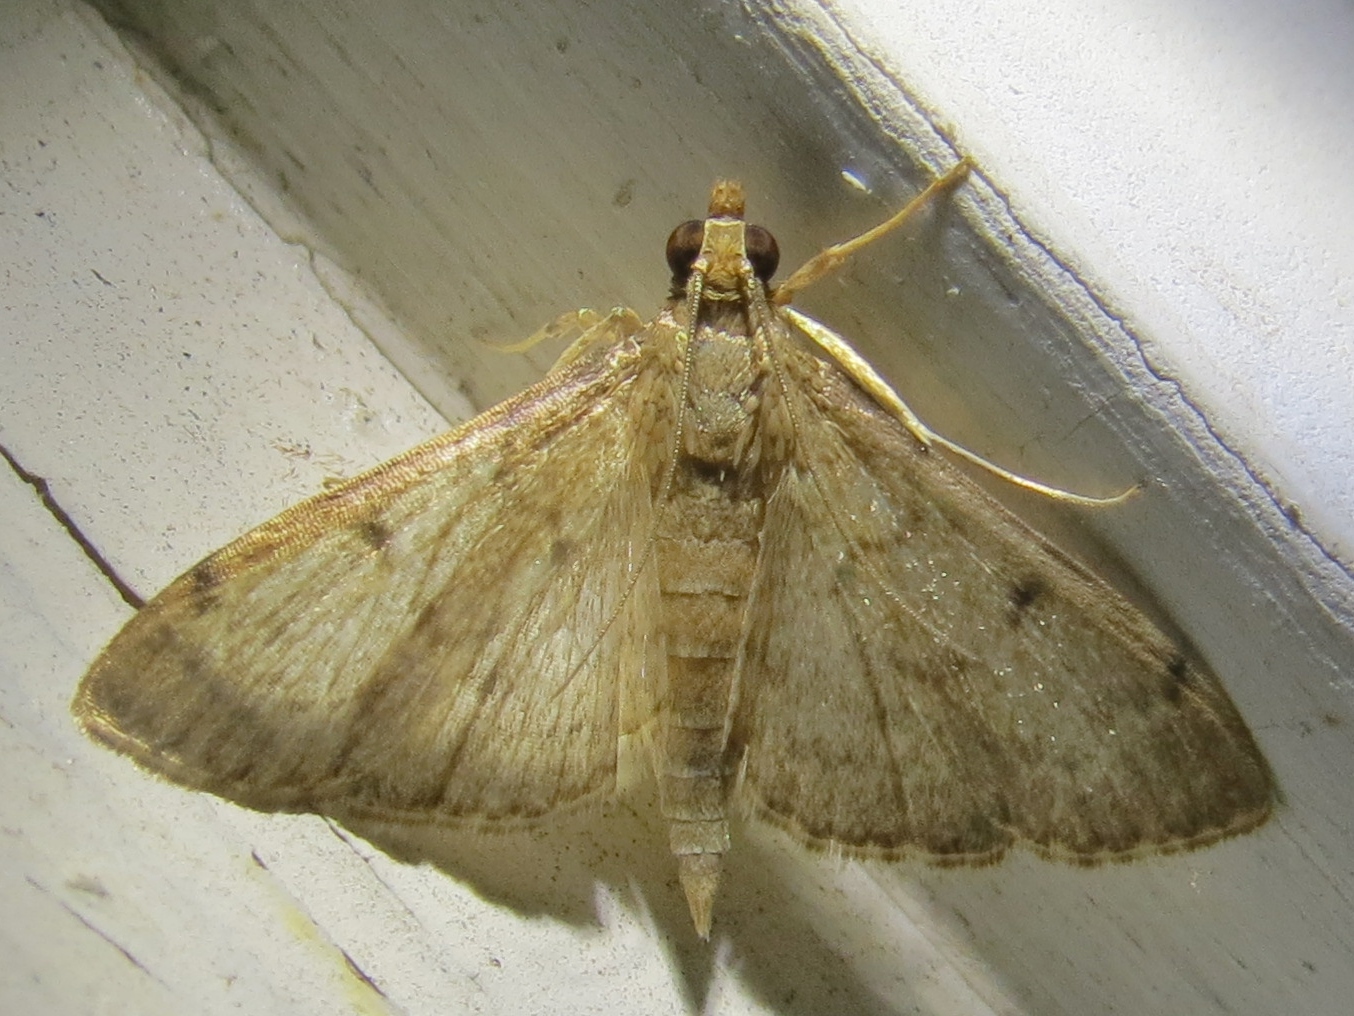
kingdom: Animalia
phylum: Arthropoda
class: Insecta
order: Lepidoptera
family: Crambidae
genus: Herpetogramma
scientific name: Herpetogramma phaeopteralis
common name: Dusky herpetogramma moth
